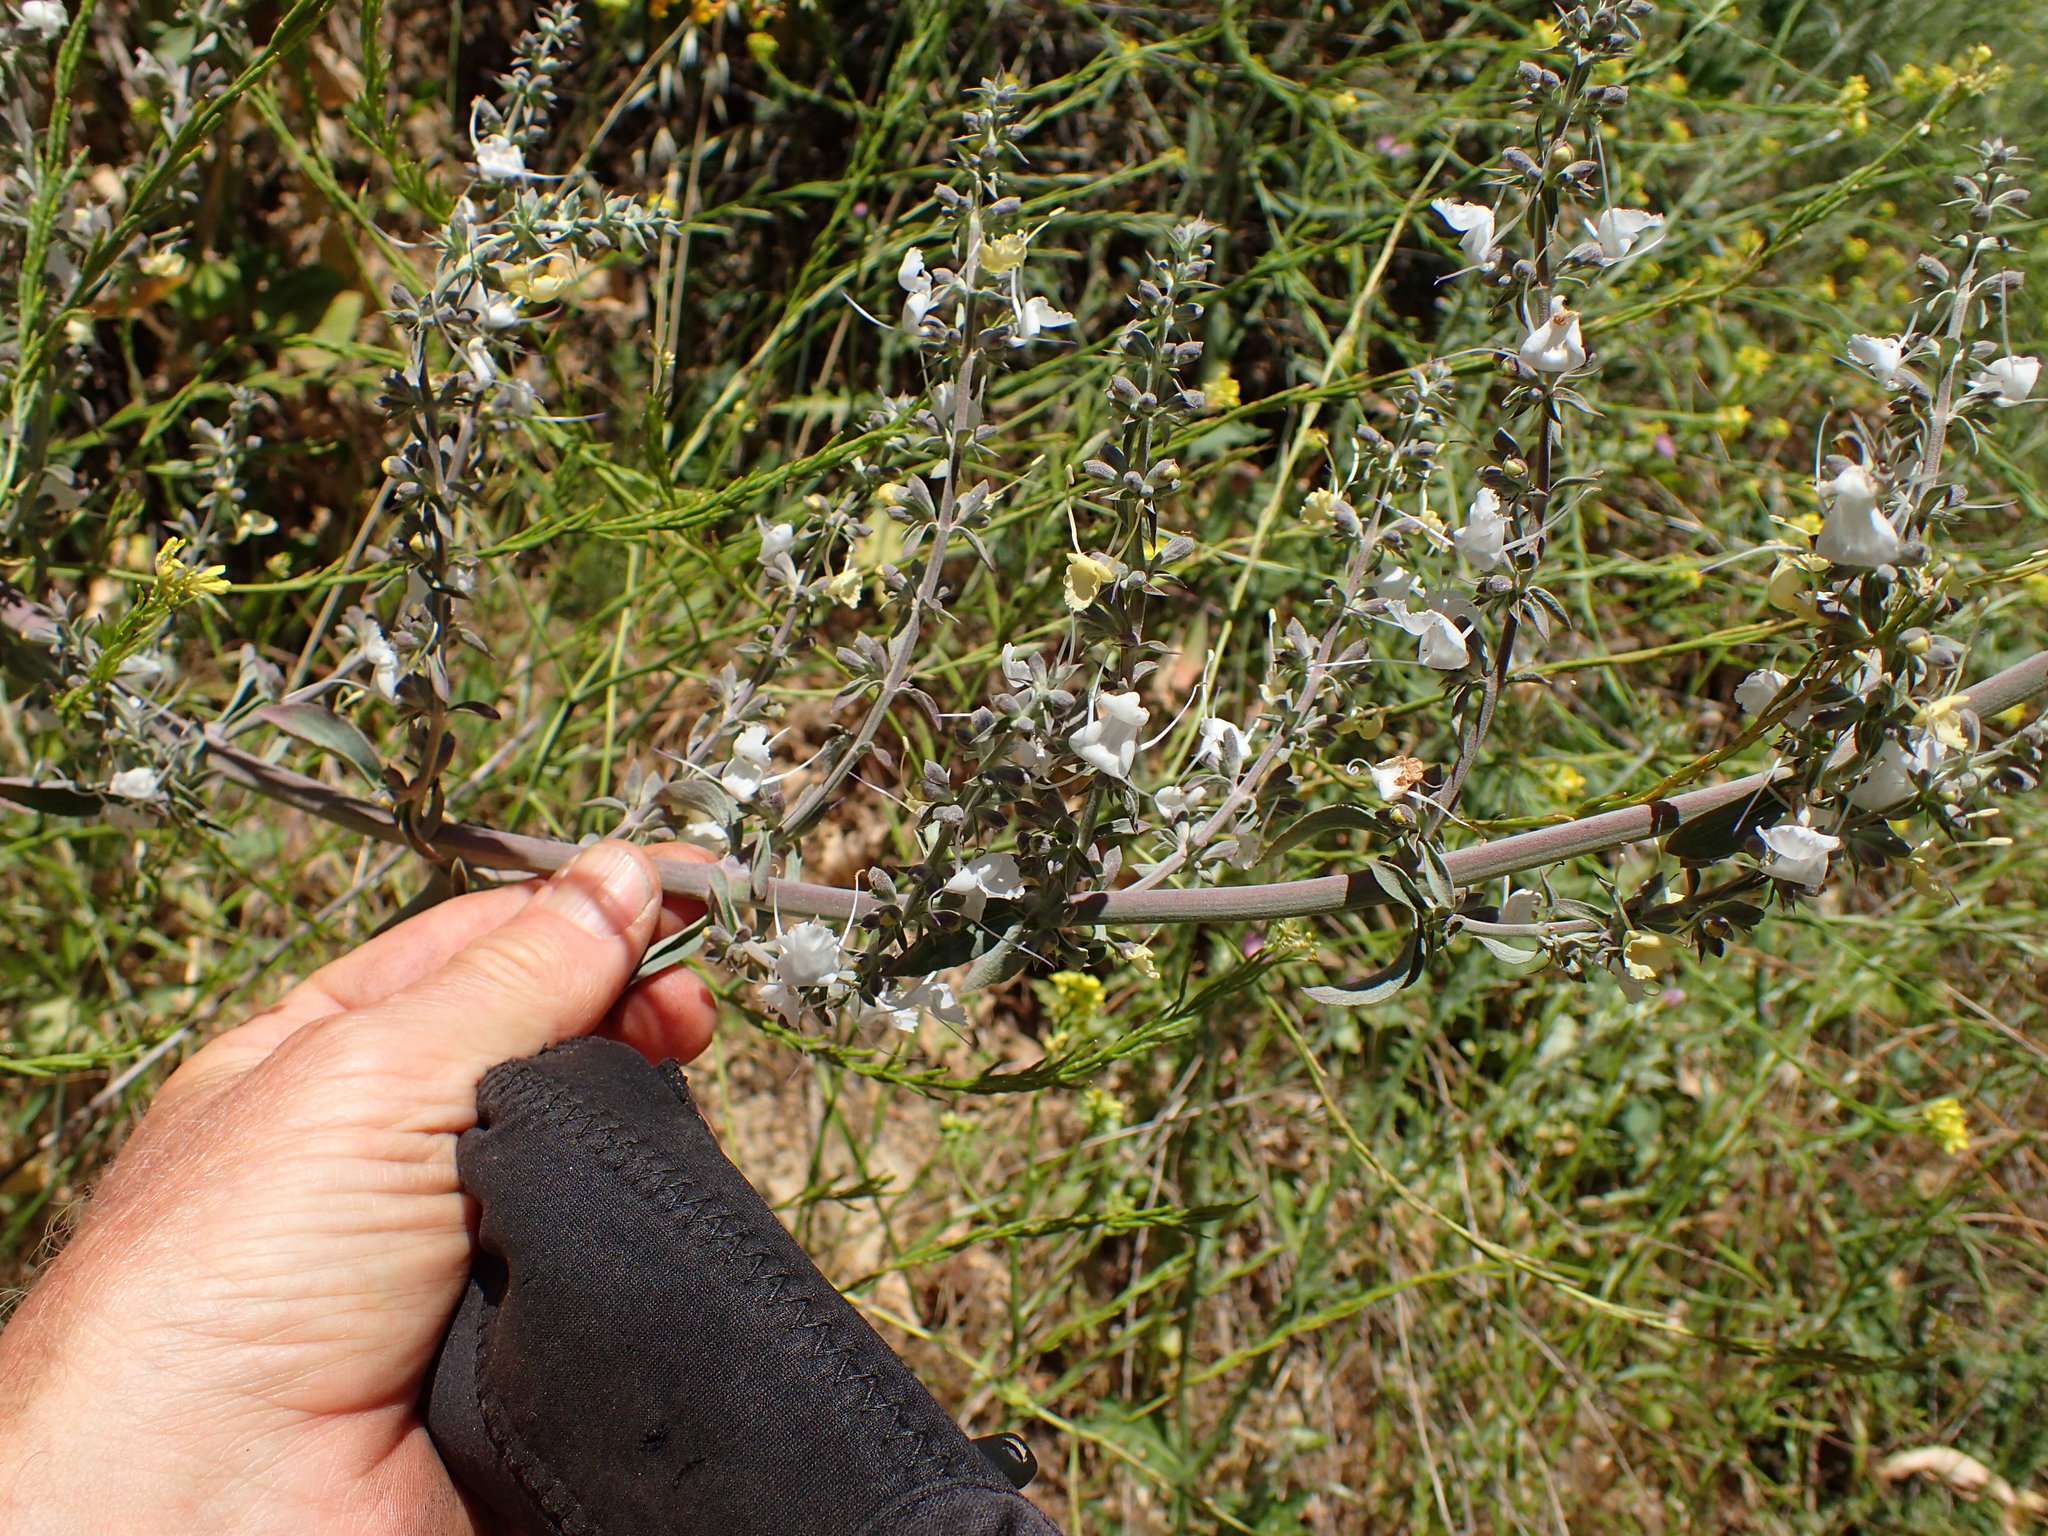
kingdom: Plantae
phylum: Tracheophyta
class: Magnoliopsida
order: Lamiales
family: Lamiaceae
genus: Salvia
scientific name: Salvia apiana
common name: White sage
